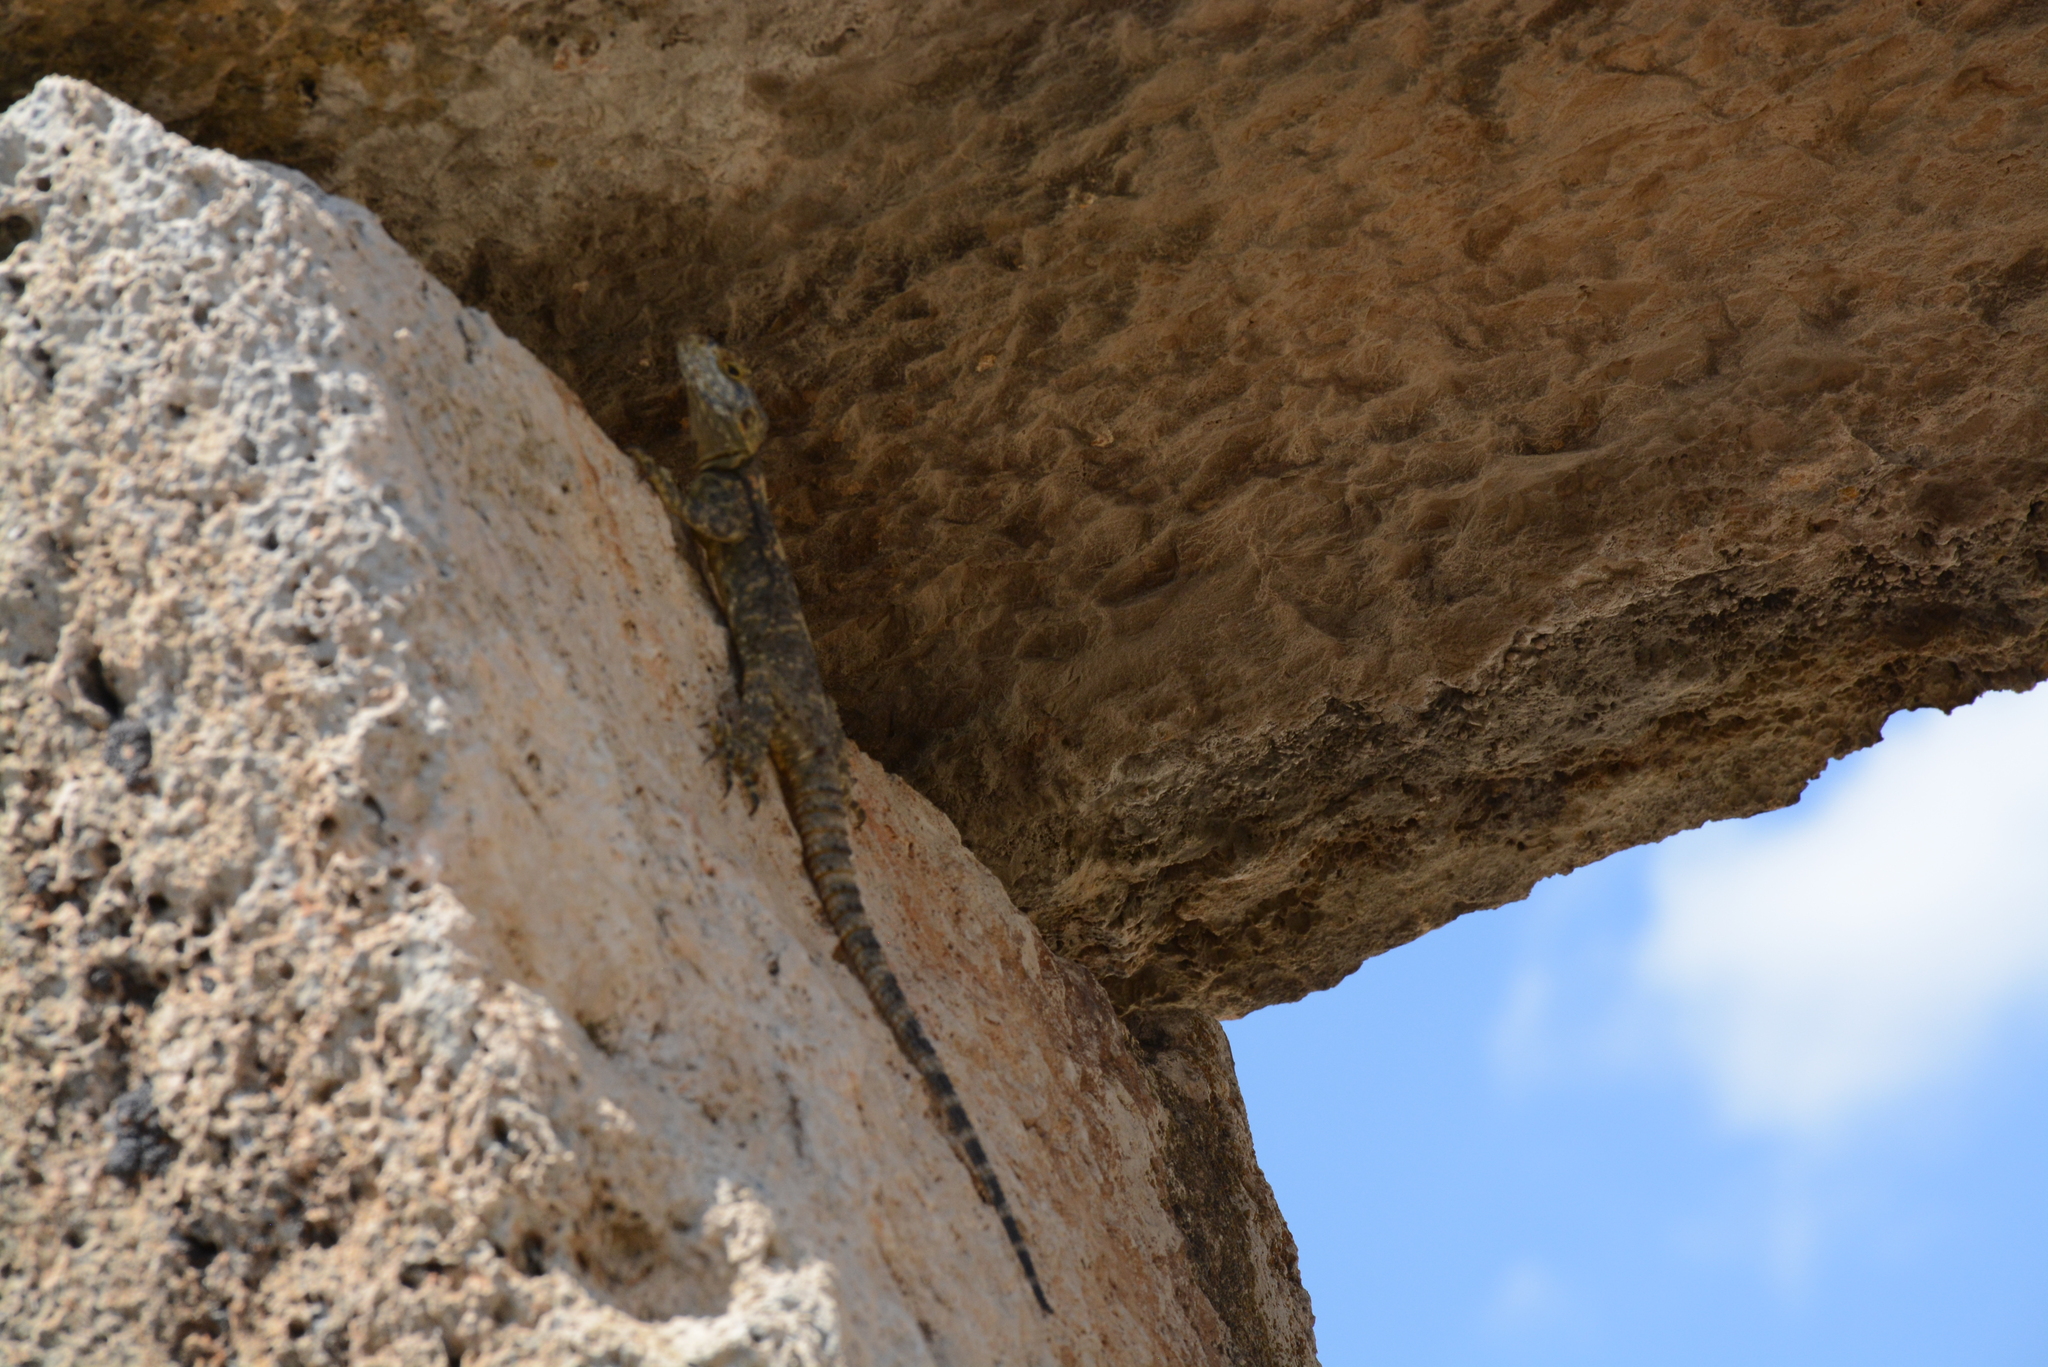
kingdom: Animalia
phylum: Chordata
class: Squamata
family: Agamidae
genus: Stellagama
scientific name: Stellagama stellio
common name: Starred agama
